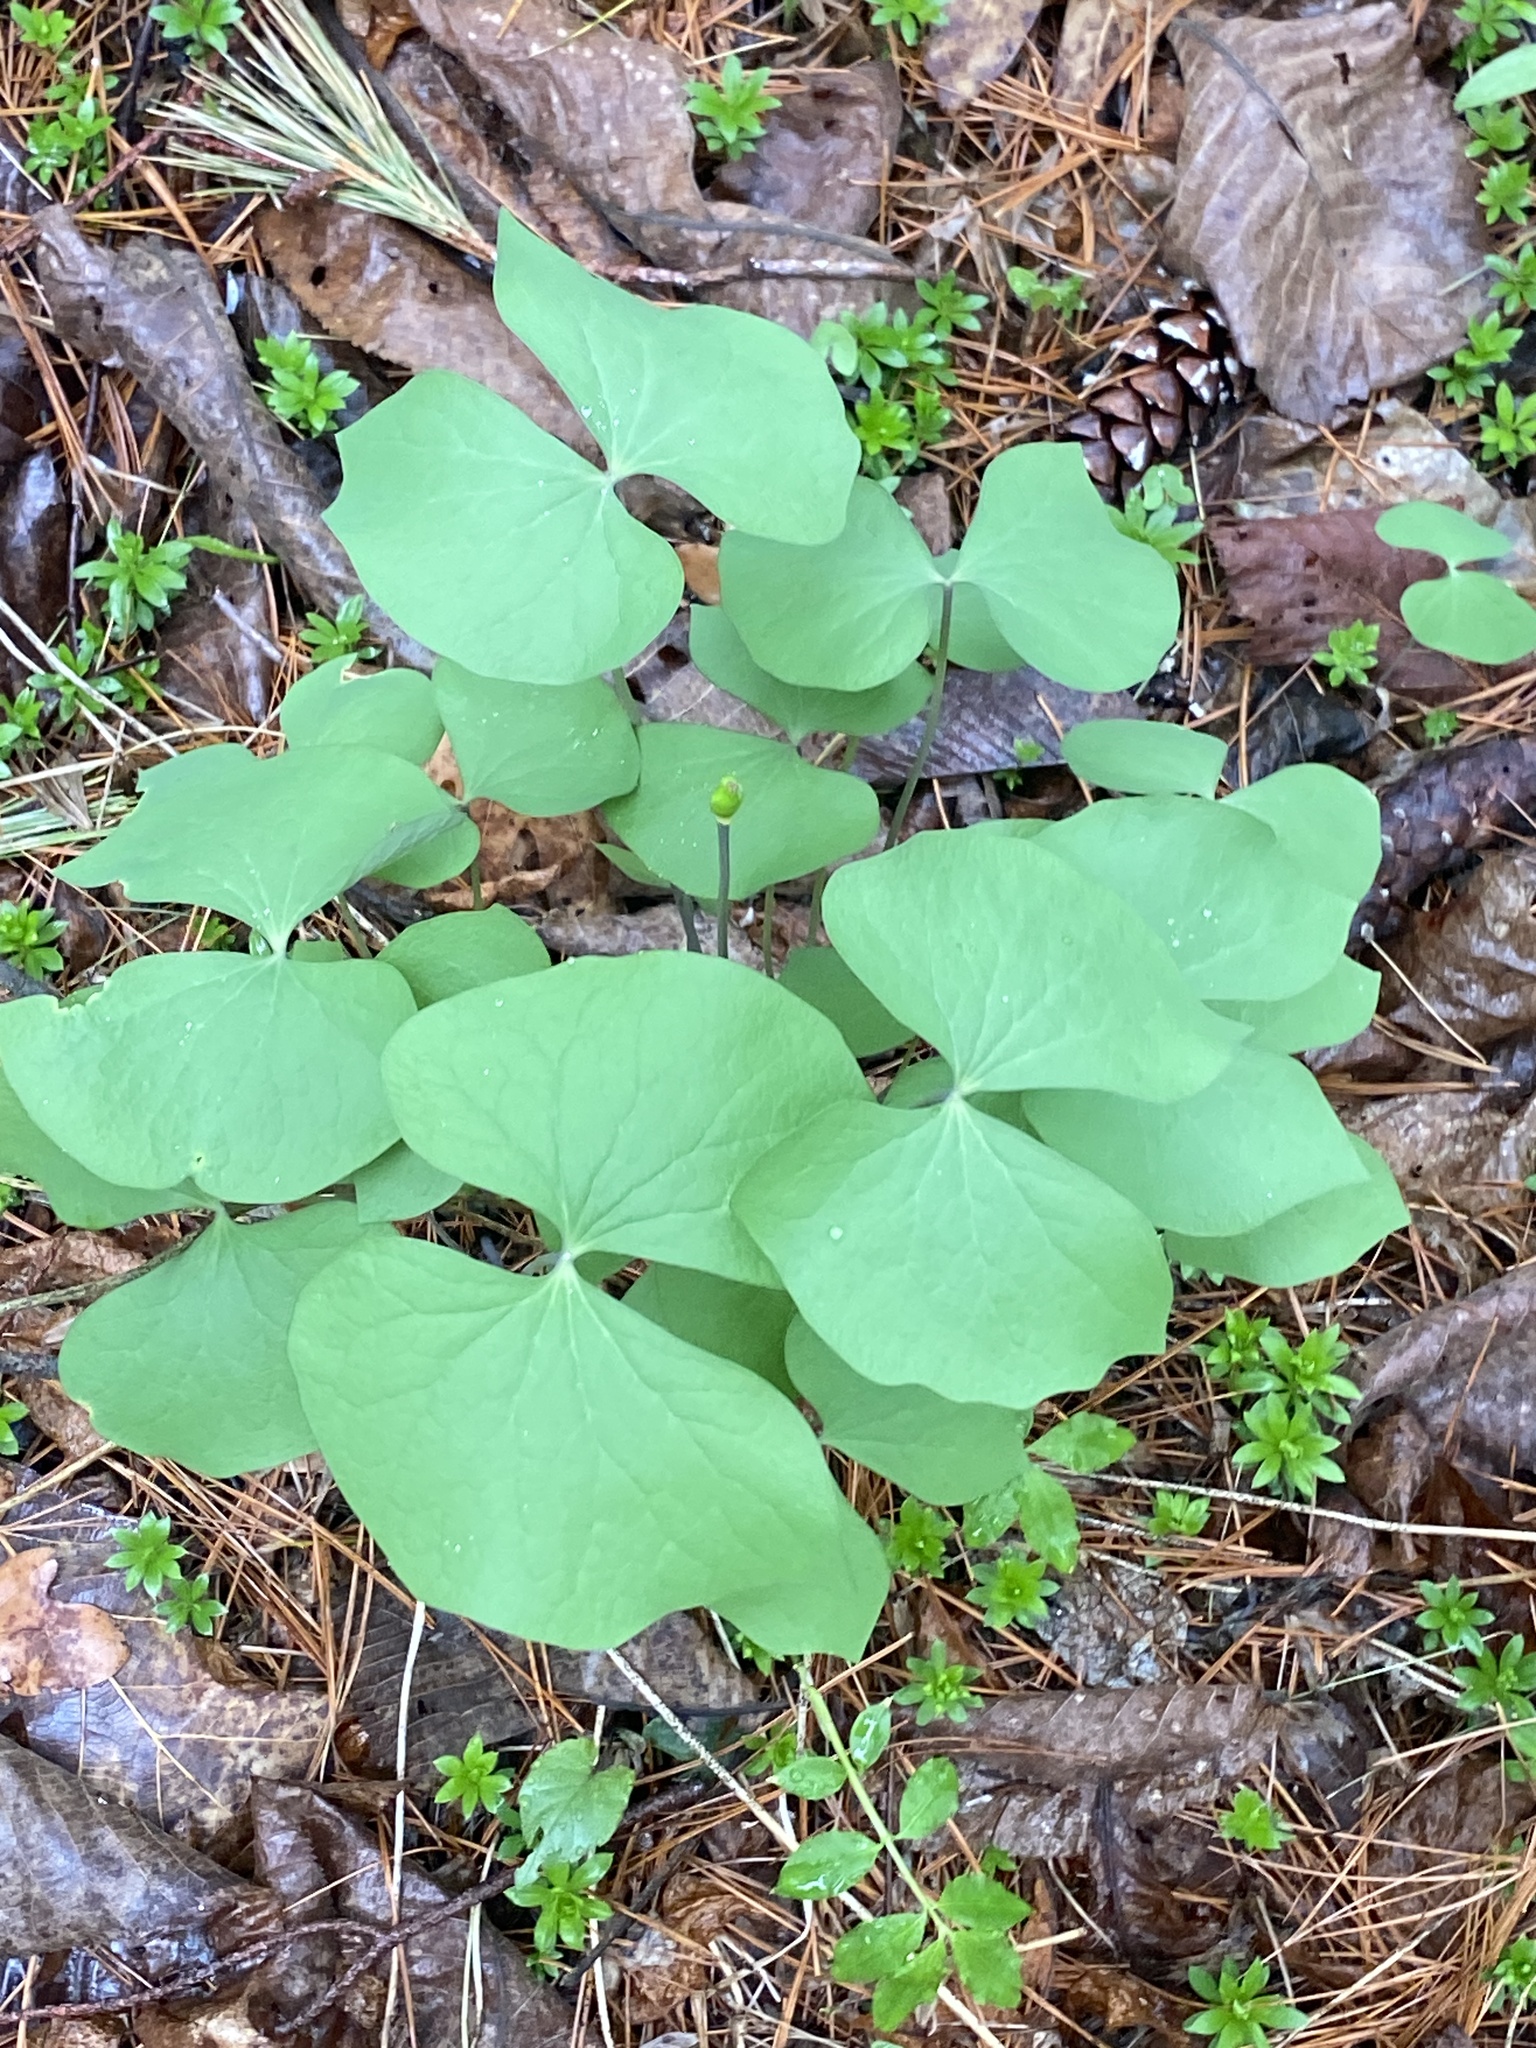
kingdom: Plantae
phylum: Tracheophyta
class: Magnoliopsida
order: Ranunculales
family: Berberidaceae
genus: Jeffersonia
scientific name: Jeffersonia diphylla
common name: Rheumatism-root
